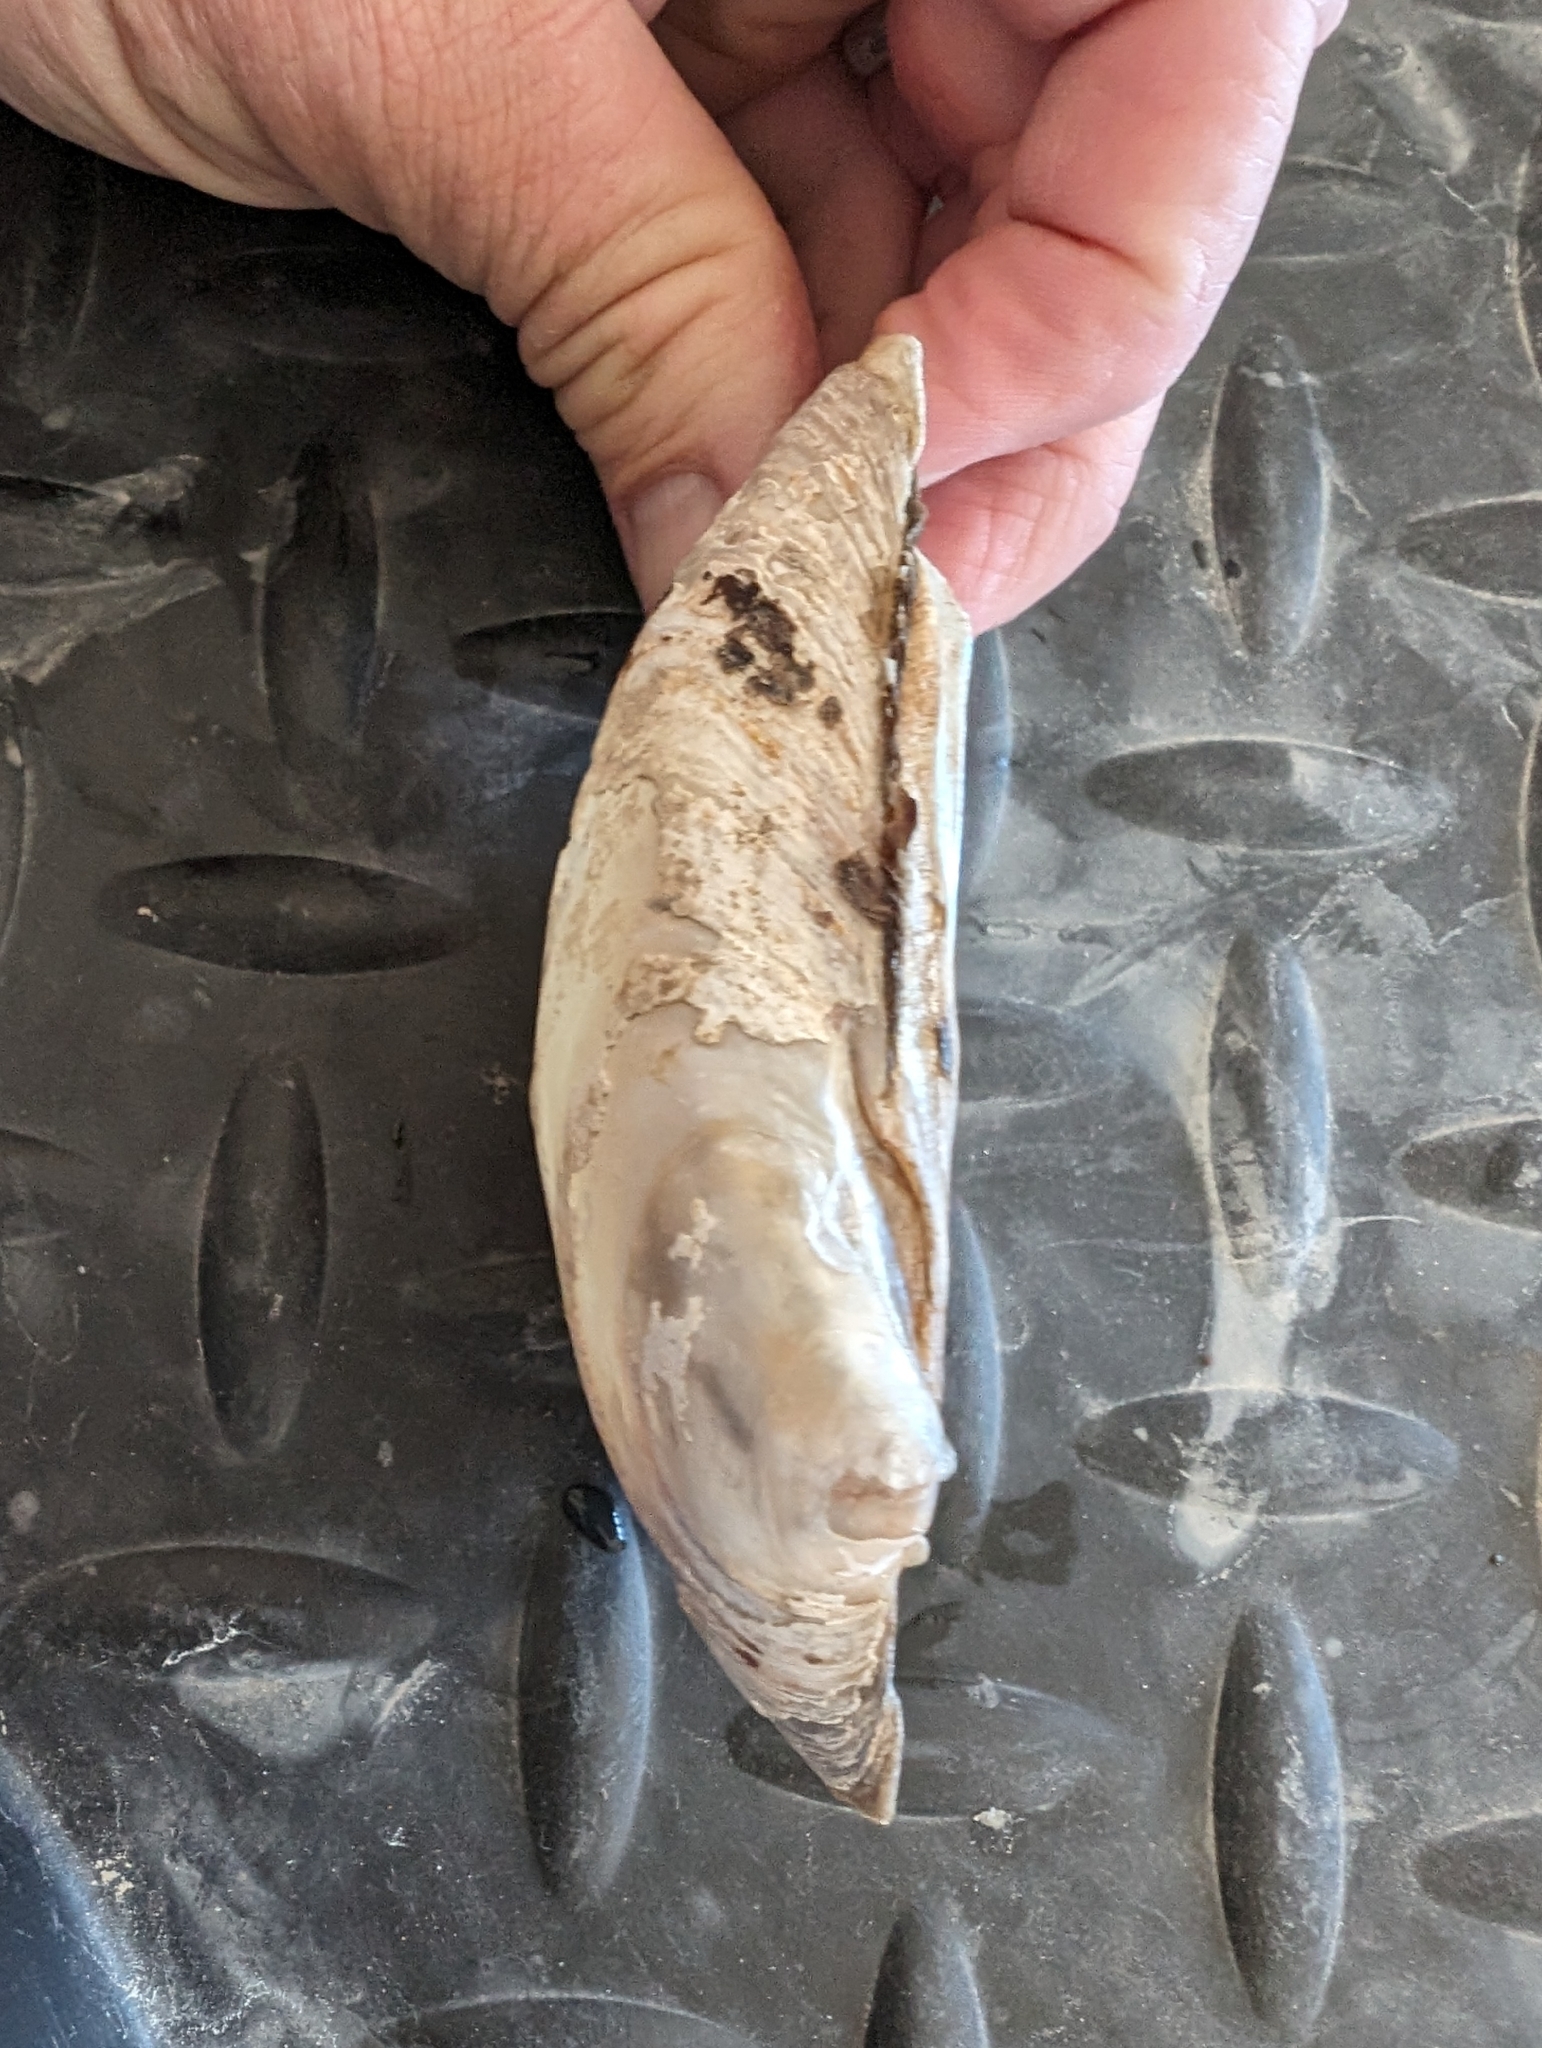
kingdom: Animalia
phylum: Mollusca
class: Bivalvia
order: Unionida
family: Unionidae
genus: Lampsilis
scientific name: Lampsilis cardium
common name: Plain pocketbook
